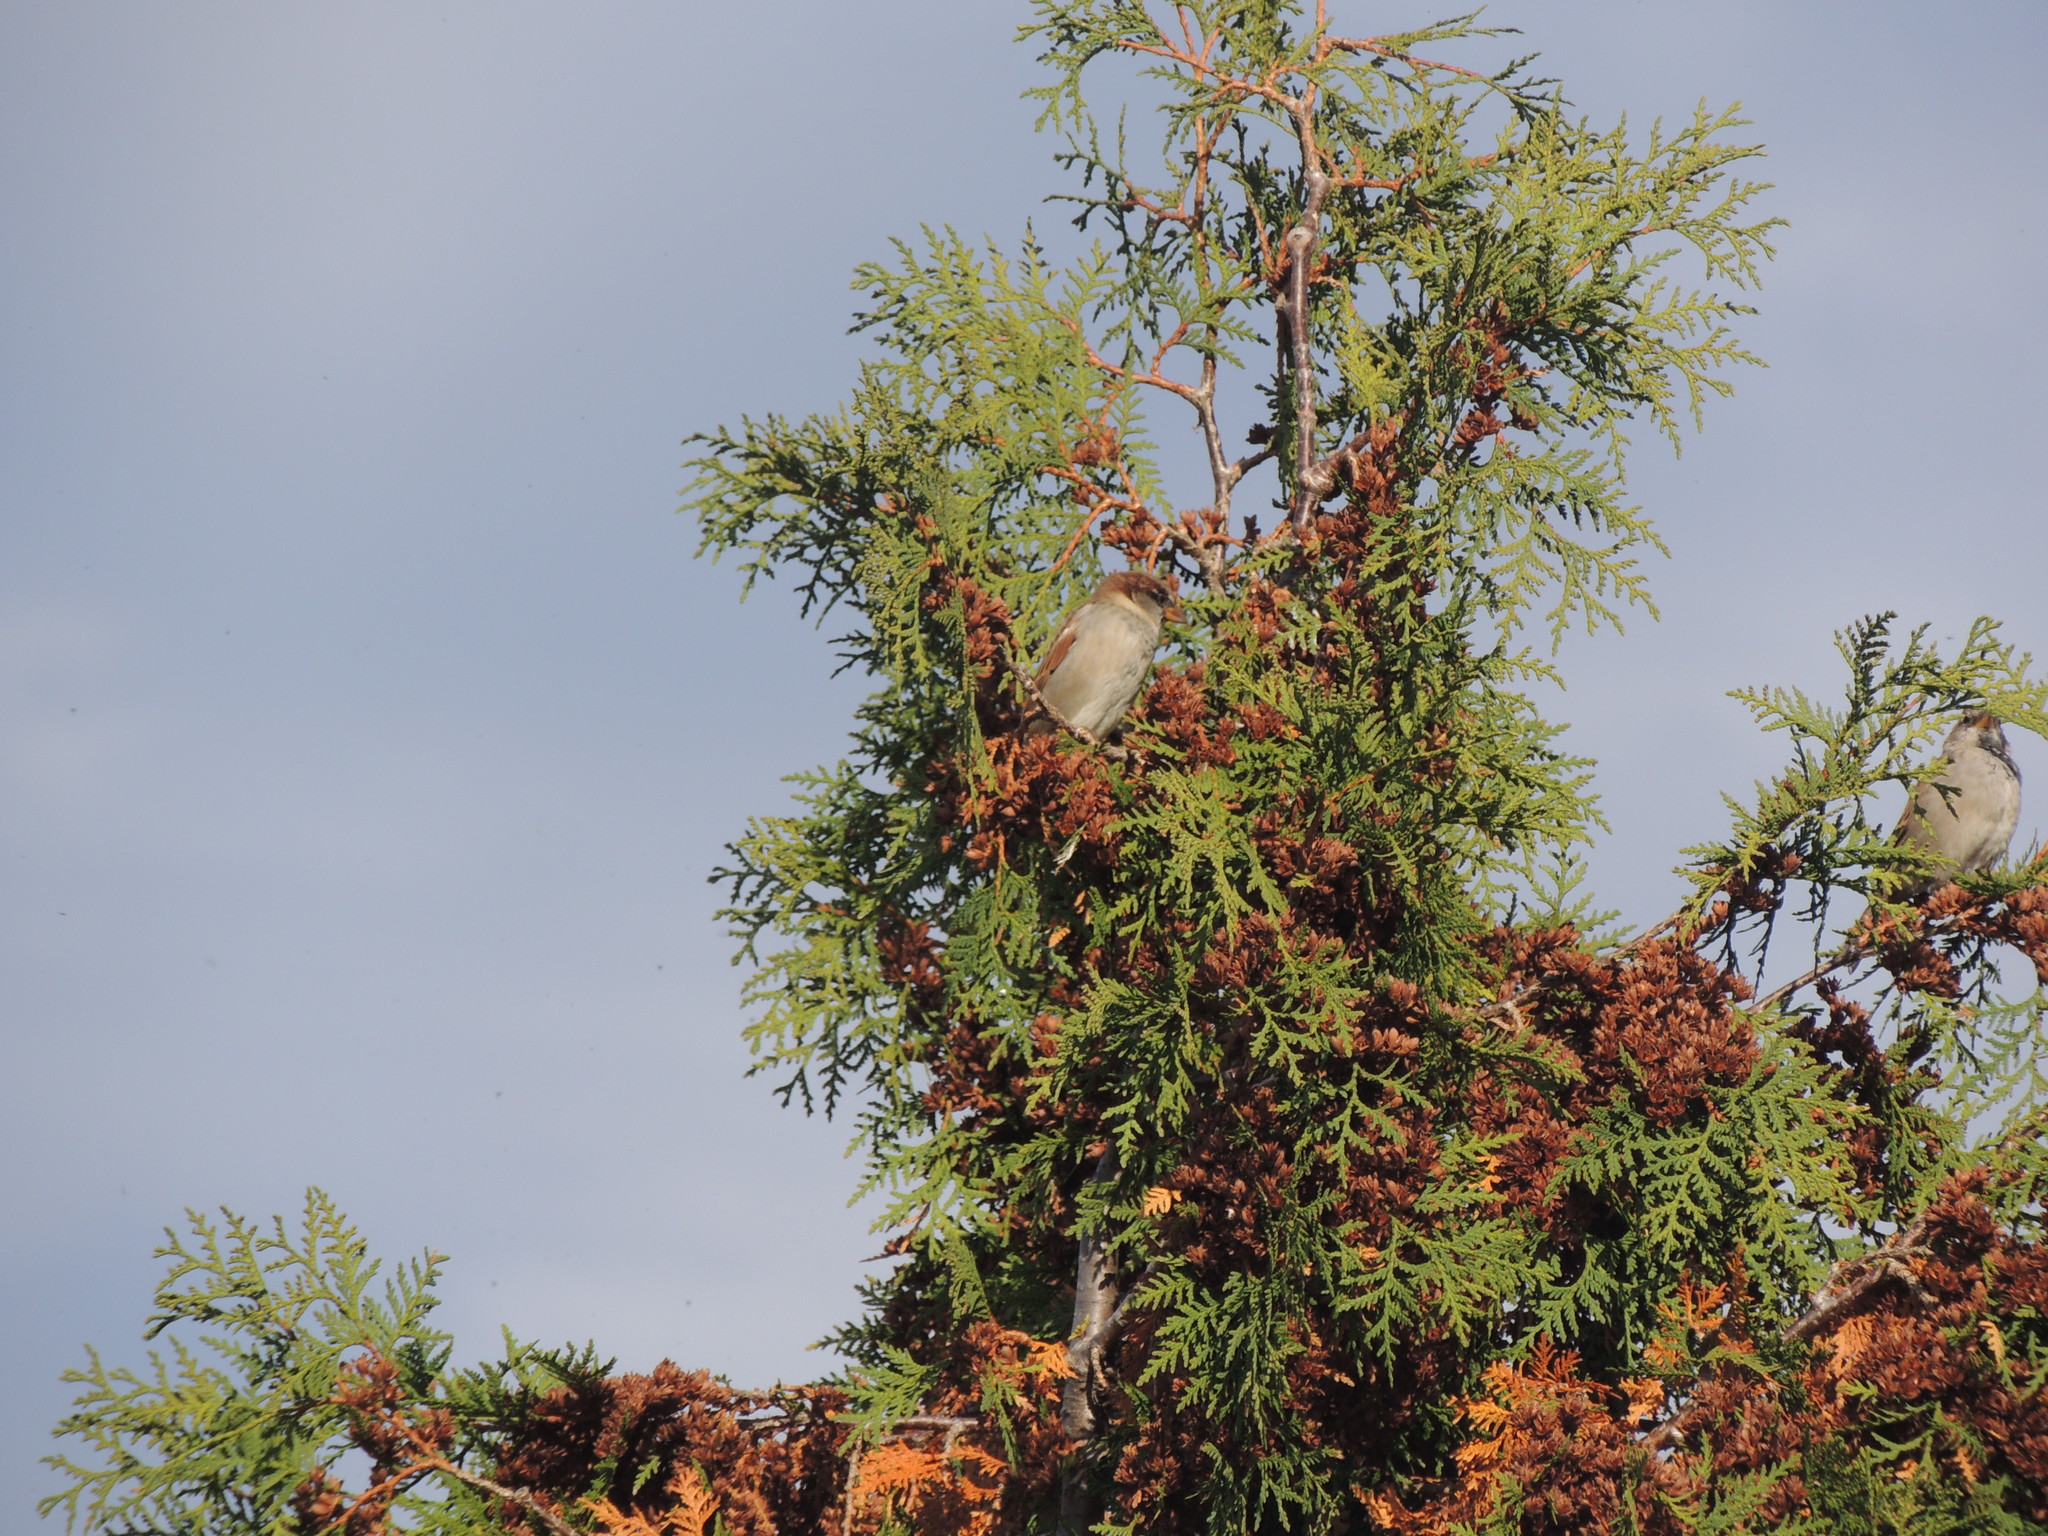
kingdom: Animalia
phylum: Chordata
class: Aves
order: Passeriformes
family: Passeridae
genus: Passer
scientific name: Passer domesticus
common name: House sparrow
